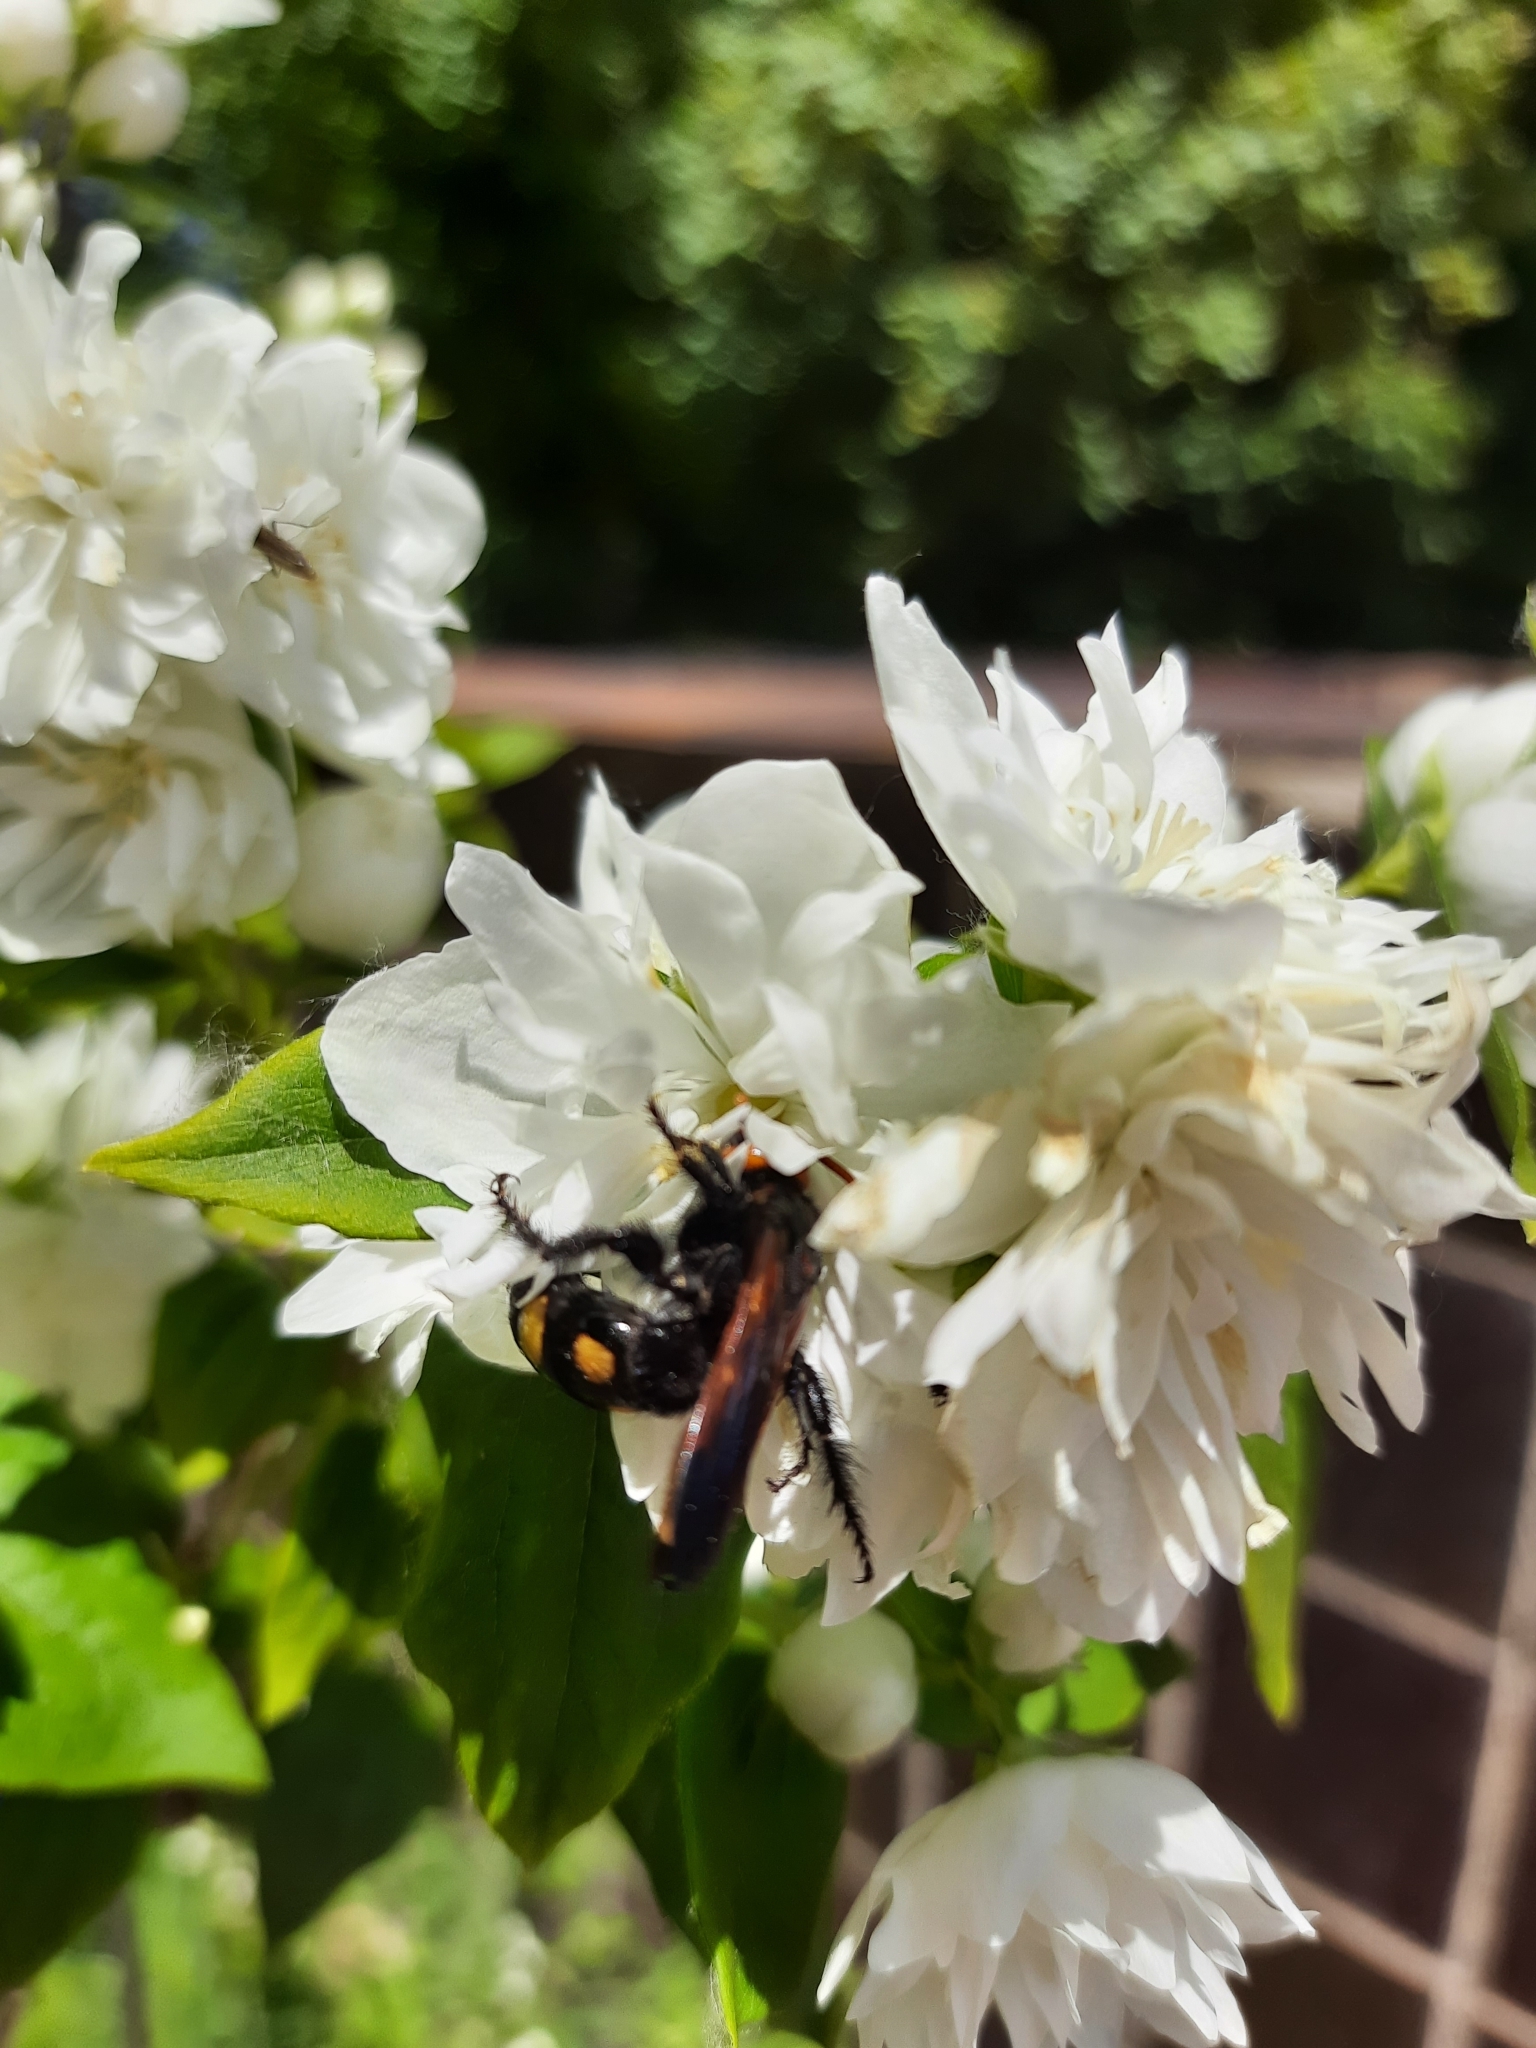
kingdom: Animalia
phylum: Arthropoda
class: Insecta
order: Hymenoptera
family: Scoliidae
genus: Megascolia
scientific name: Megascolia bidens
